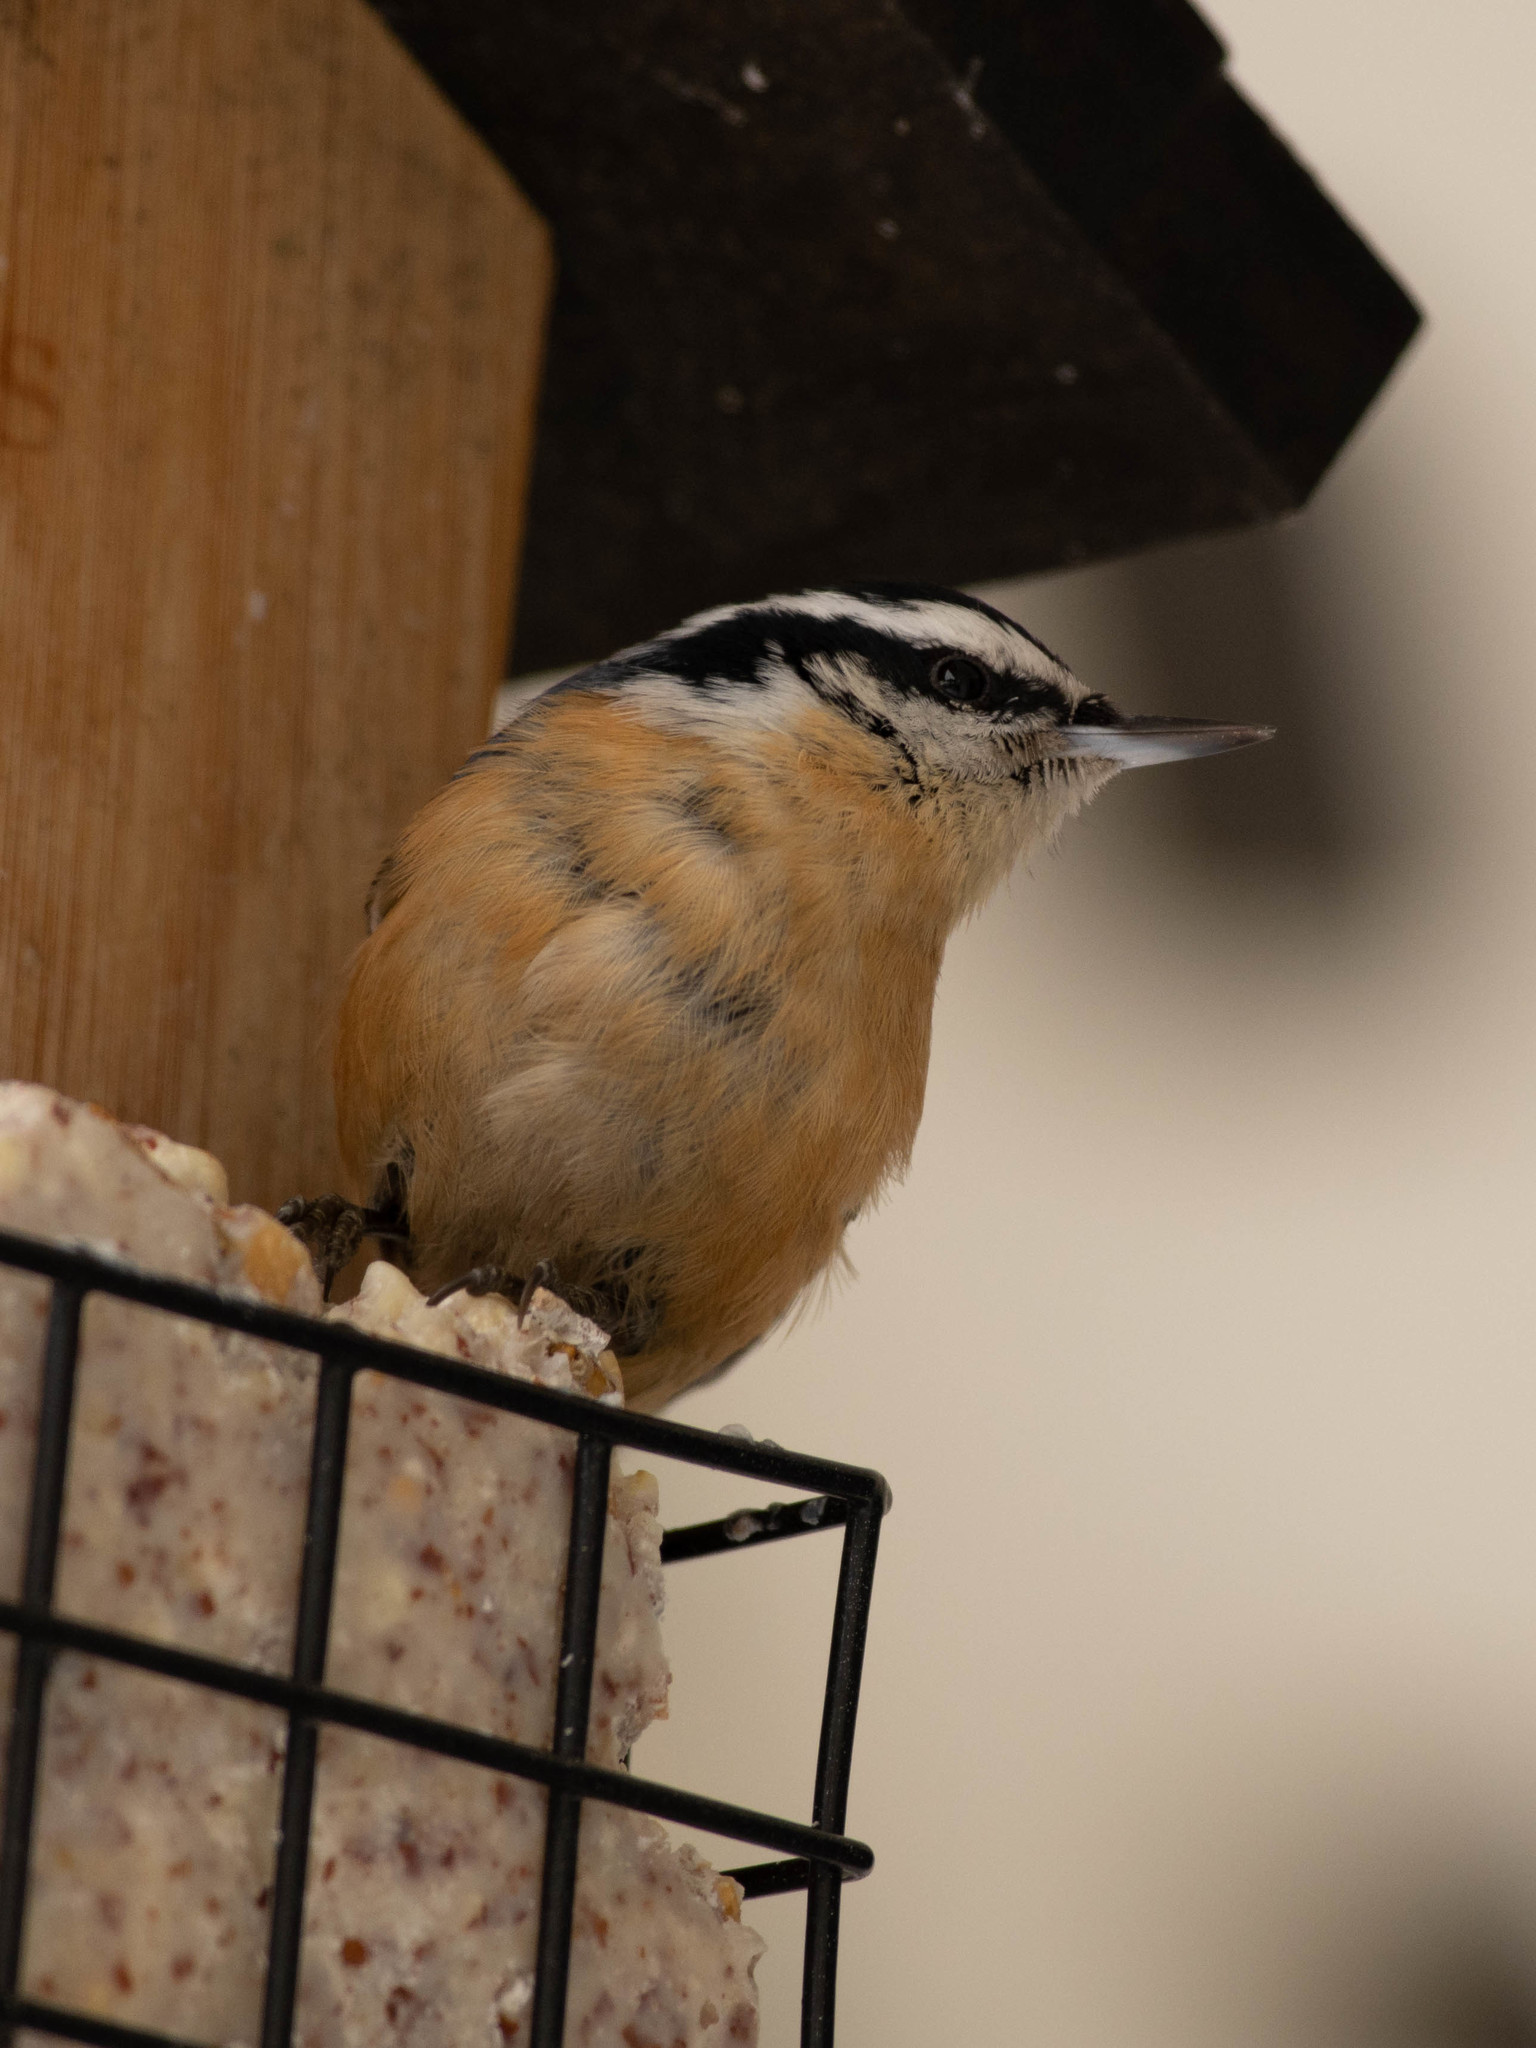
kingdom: Animalia
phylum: Chordata
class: Aves
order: Passeriformes
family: Sittidae
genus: Sitta
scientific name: Sitta canadensis
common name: Red-breasted nuthatch
